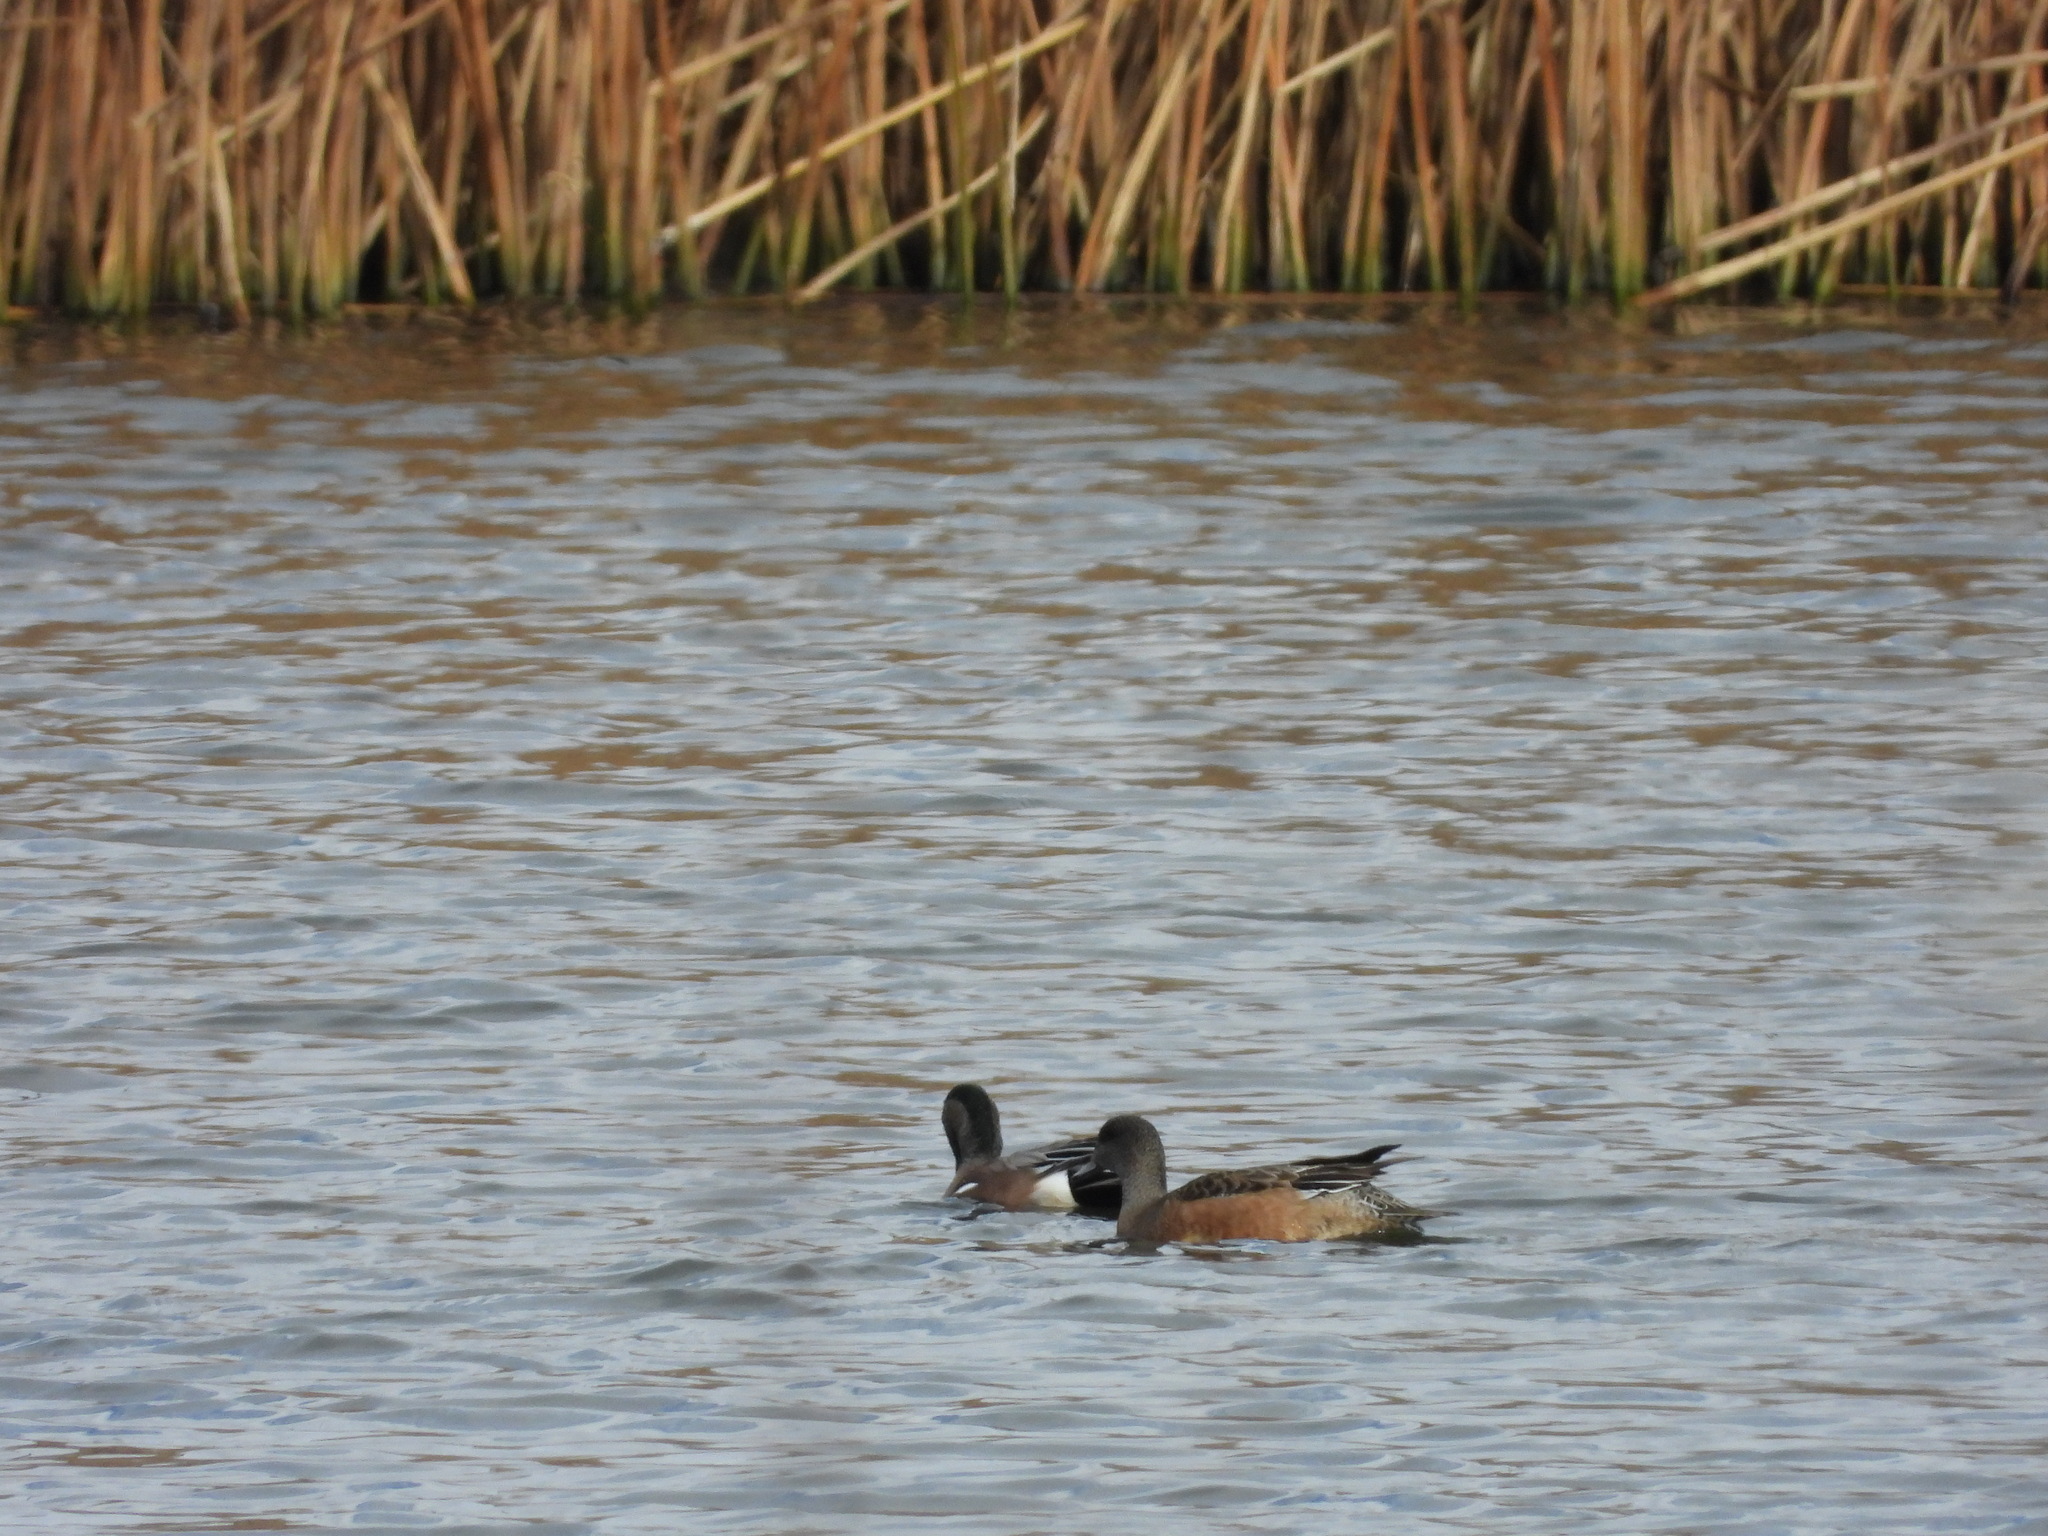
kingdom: Animalia
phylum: Chordata
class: Aves
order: Anseriformes
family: Anatidae
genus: Mareca
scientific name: Mareca americana
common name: American wigeon
